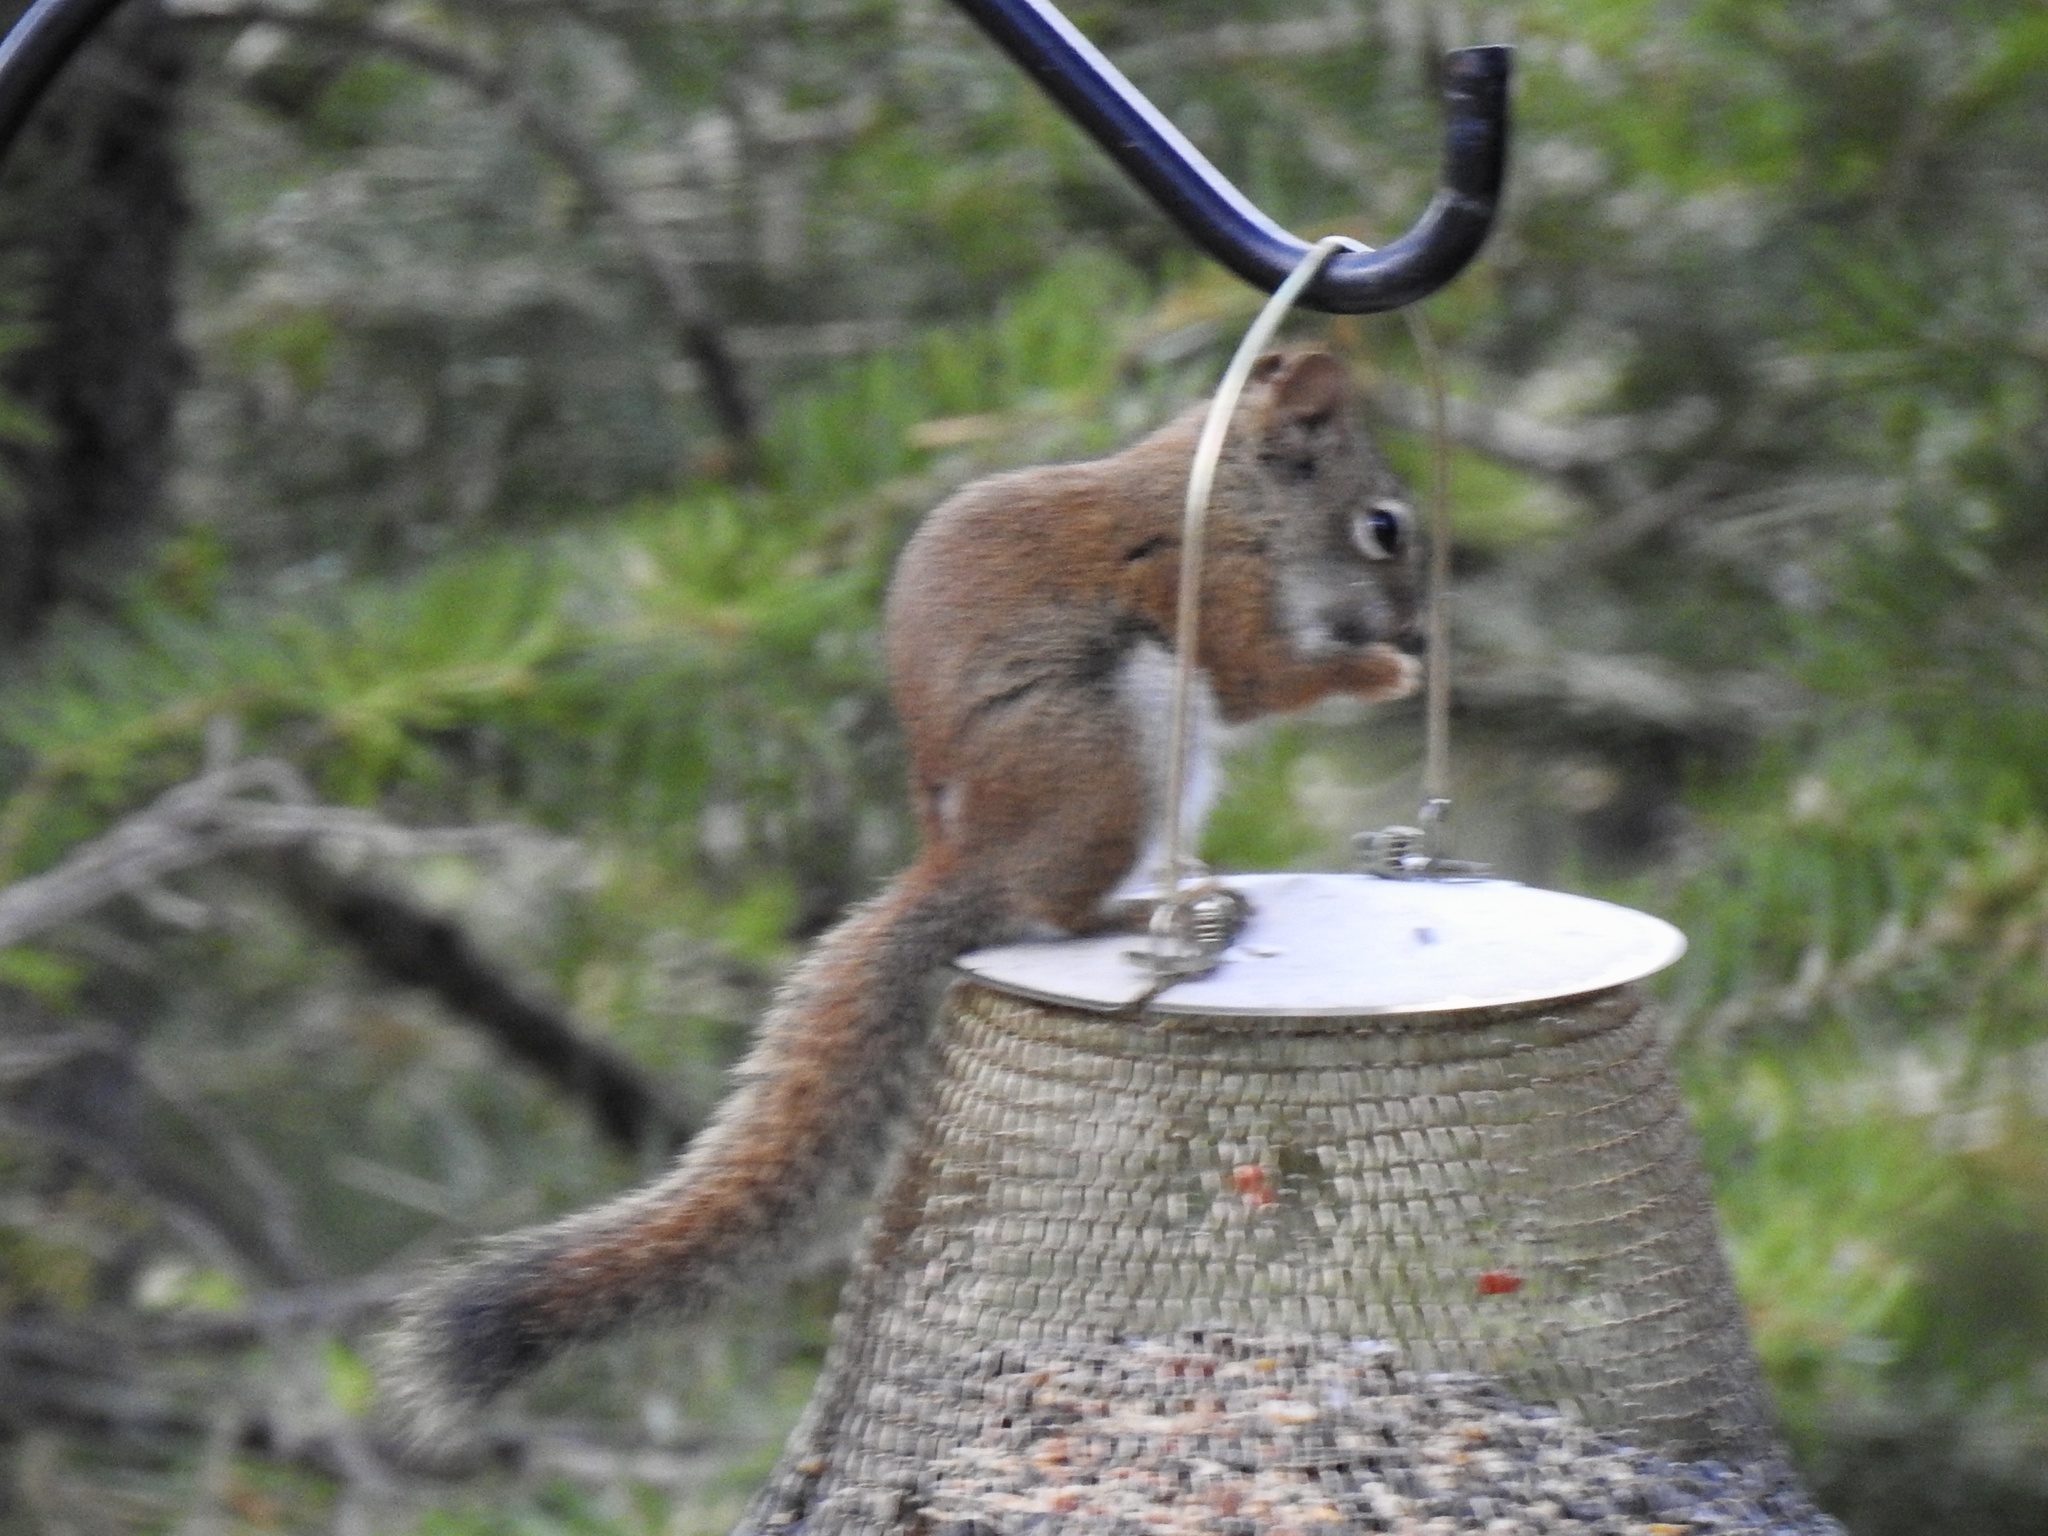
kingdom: Animalia
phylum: Chordata
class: Mammalia
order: Rodentia
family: Sciuridae
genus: Tamiasciurus
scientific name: Tamiasciurus hudsonicus
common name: Red squirrel
